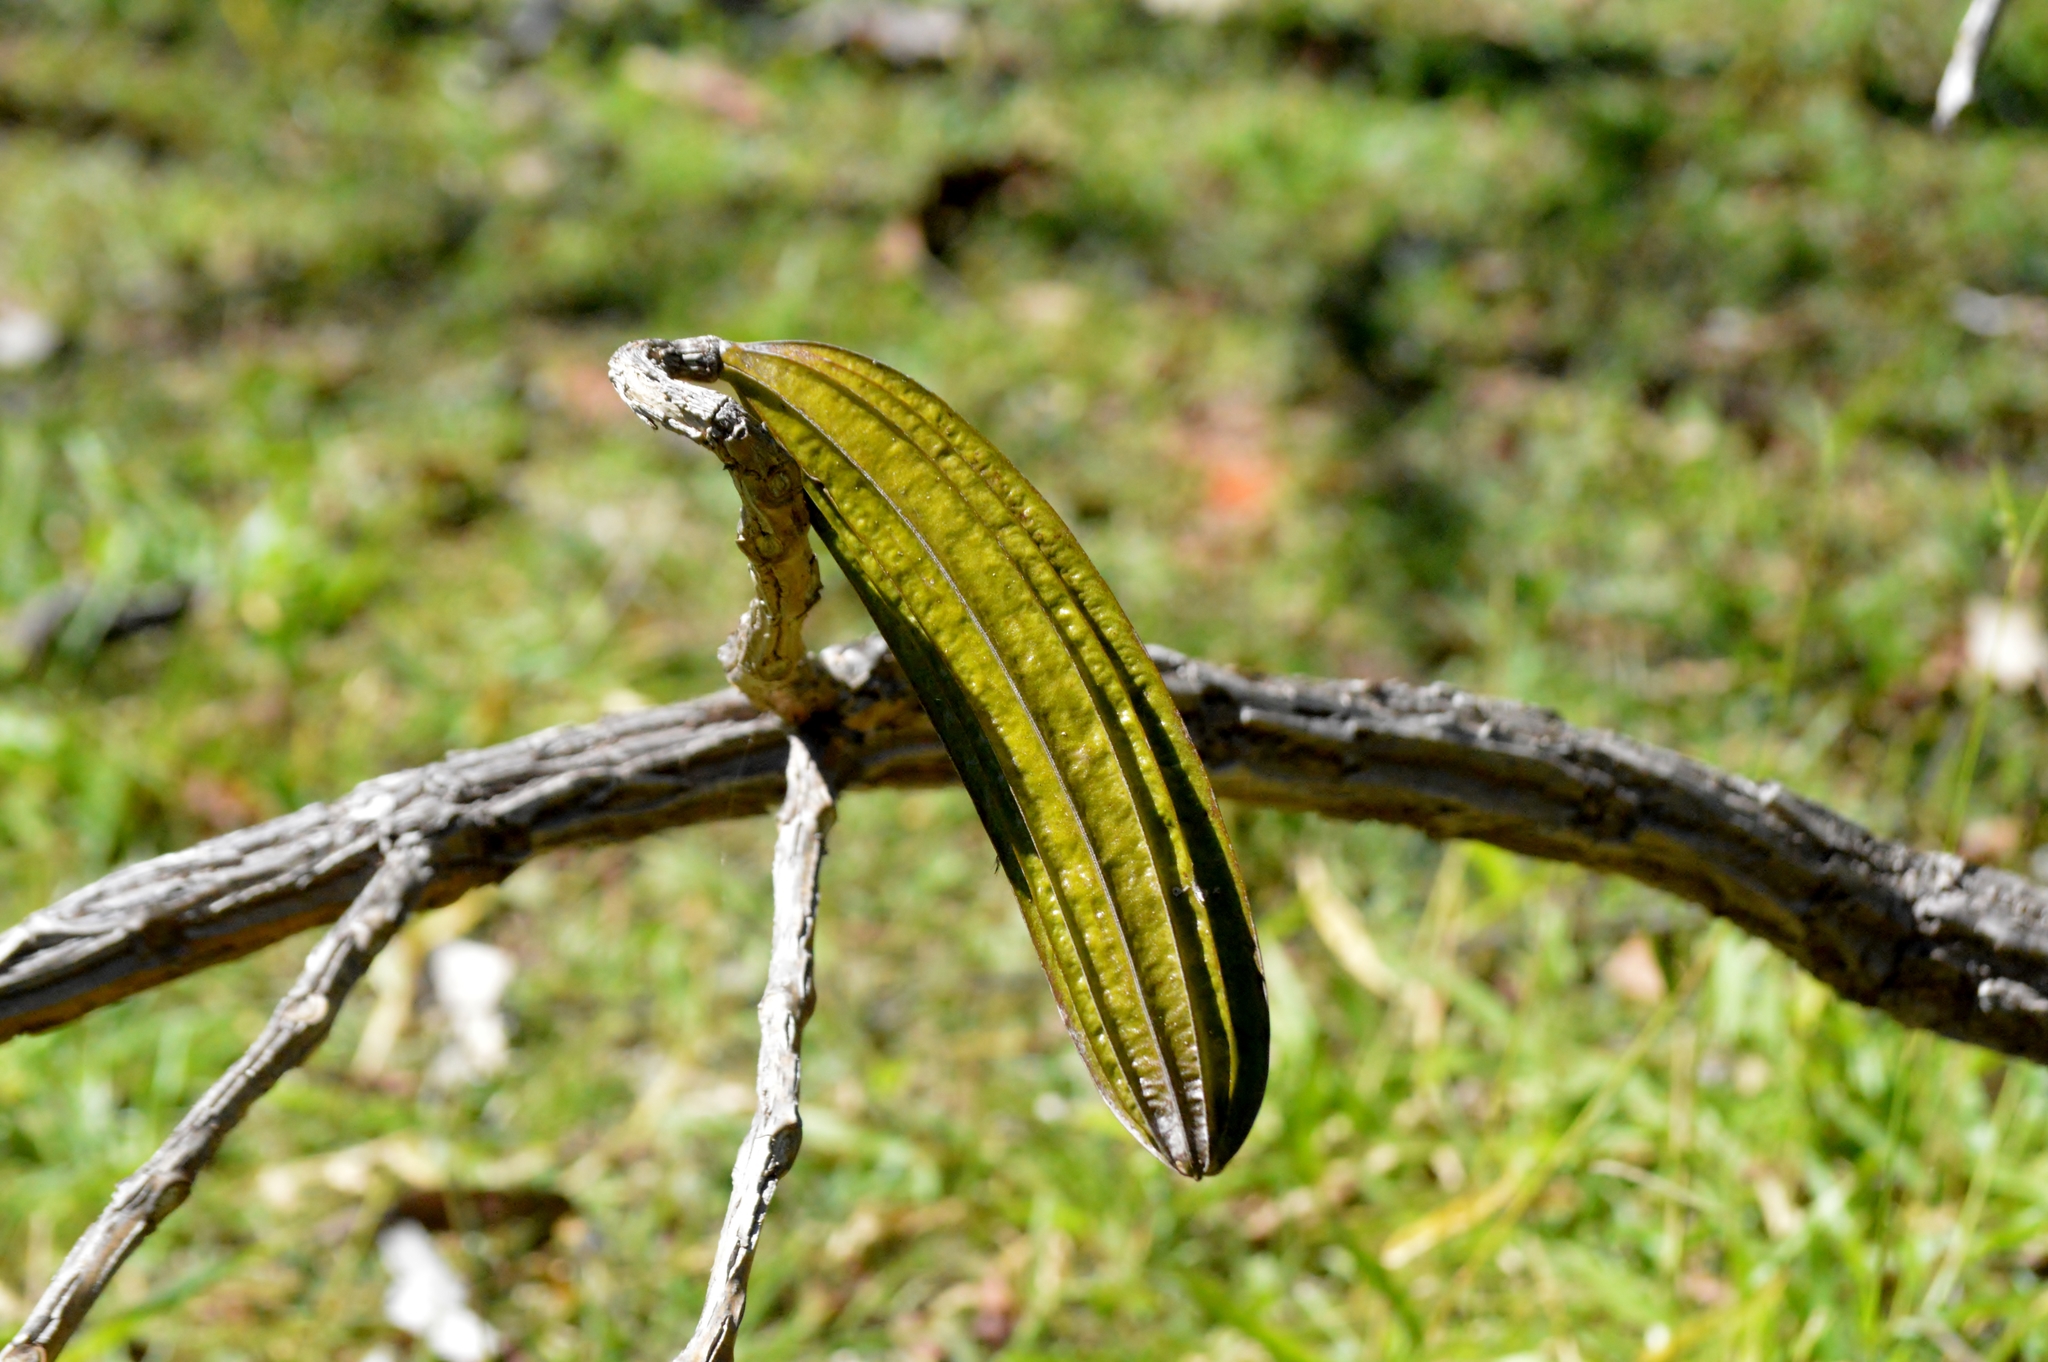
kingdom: Plantae
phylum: Tracheophyta
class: Magnoliopsida
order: Lamiales
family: Bignoniaceae
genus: Cybistax
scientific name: Cybistax antisyphilitica
